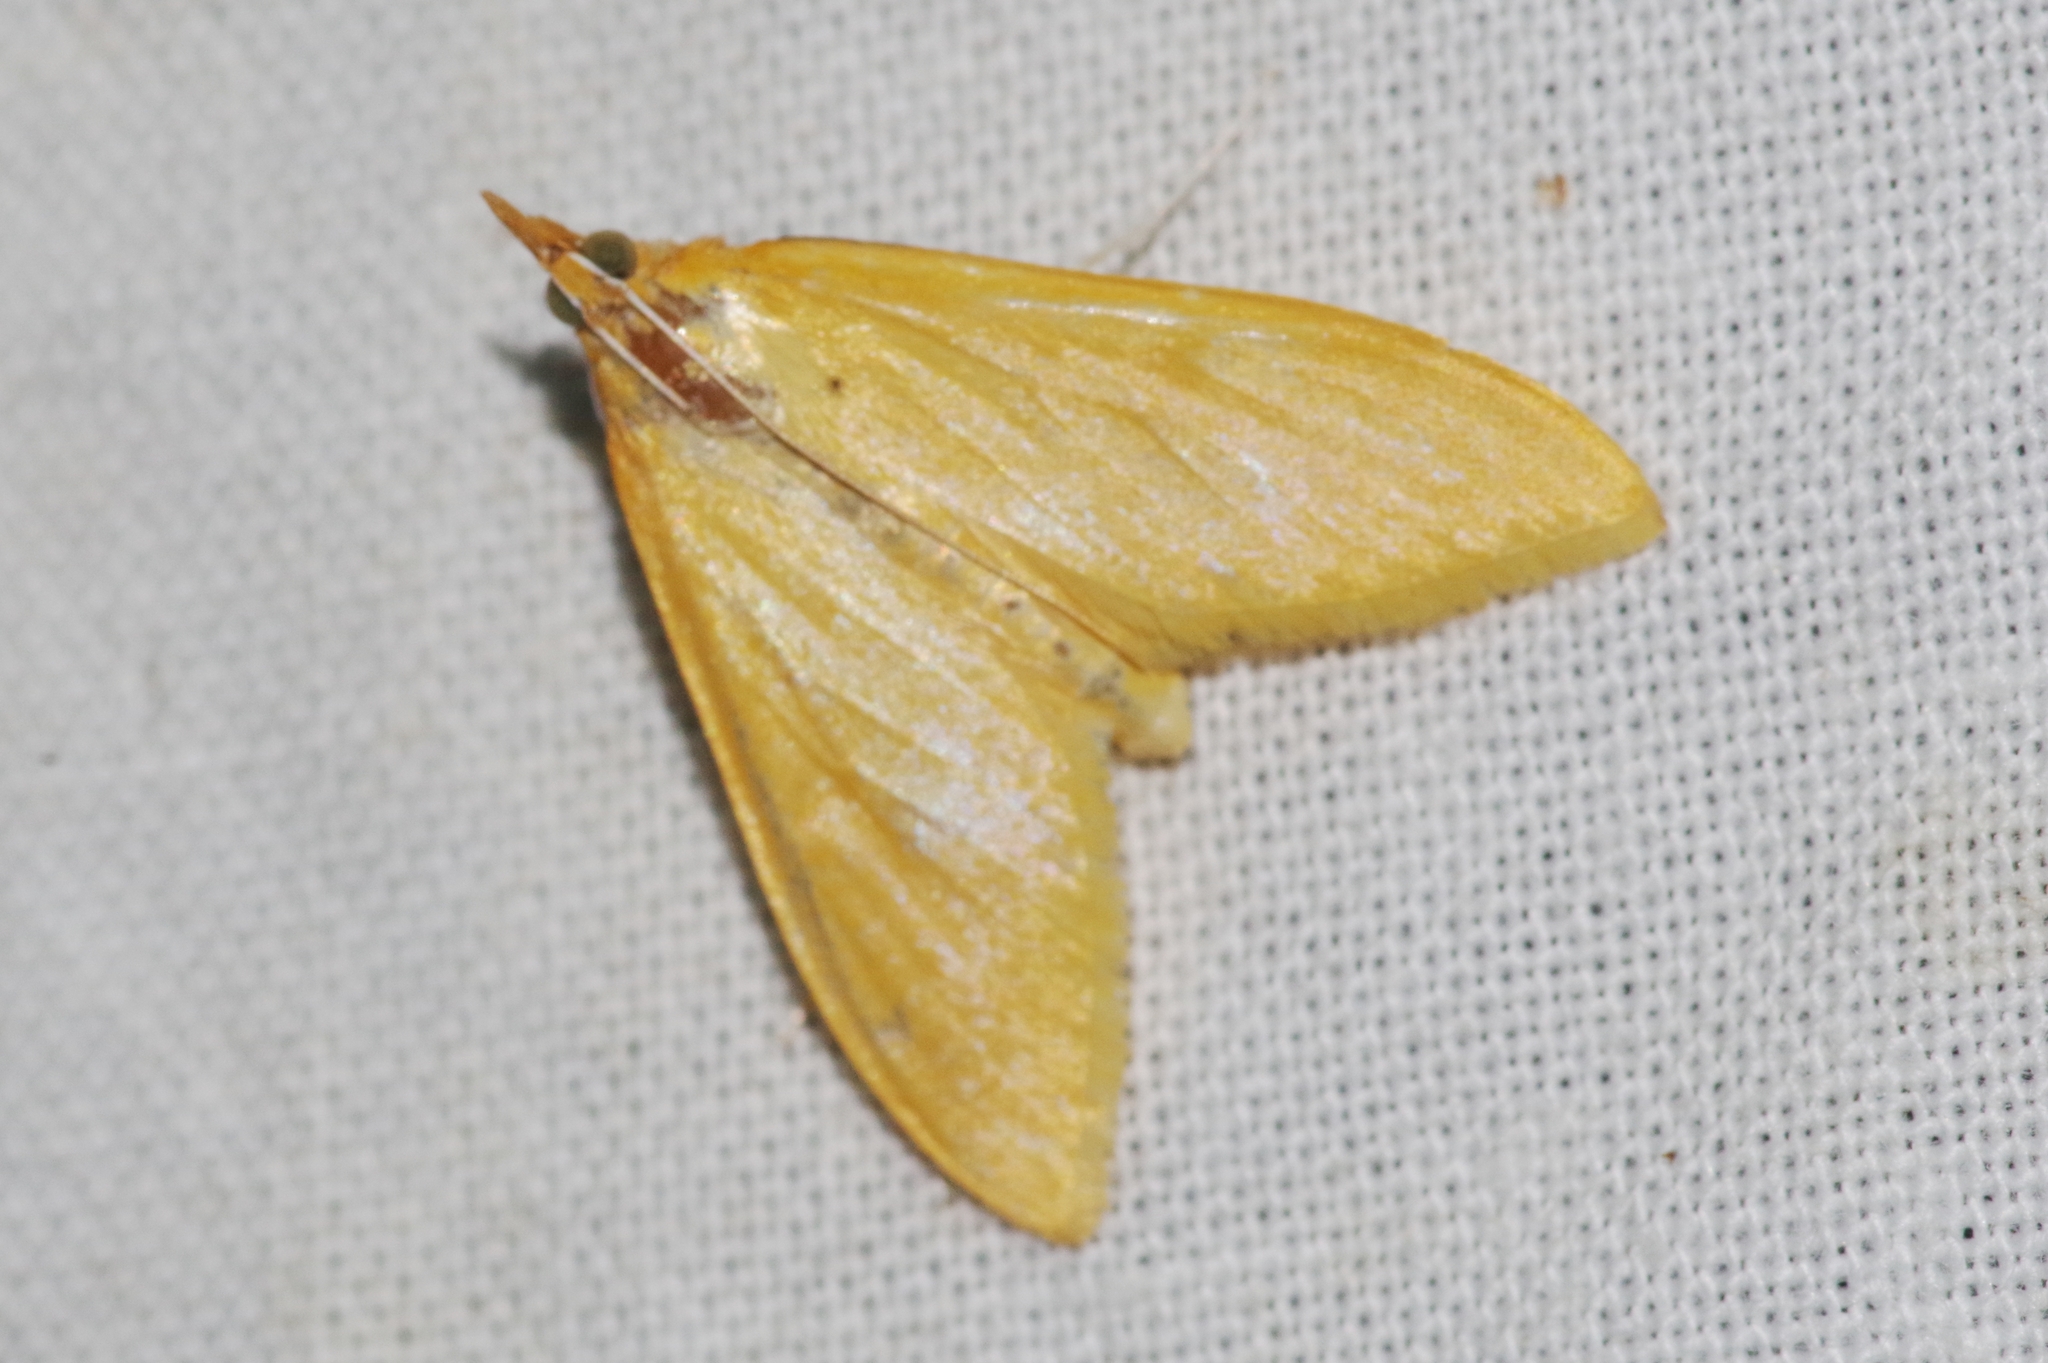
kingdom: Animalia
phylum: Arthropoda
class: Insecta
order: Lepidoptera
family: Crambidae
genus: Circobotys
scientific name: Circobotys aurealis
